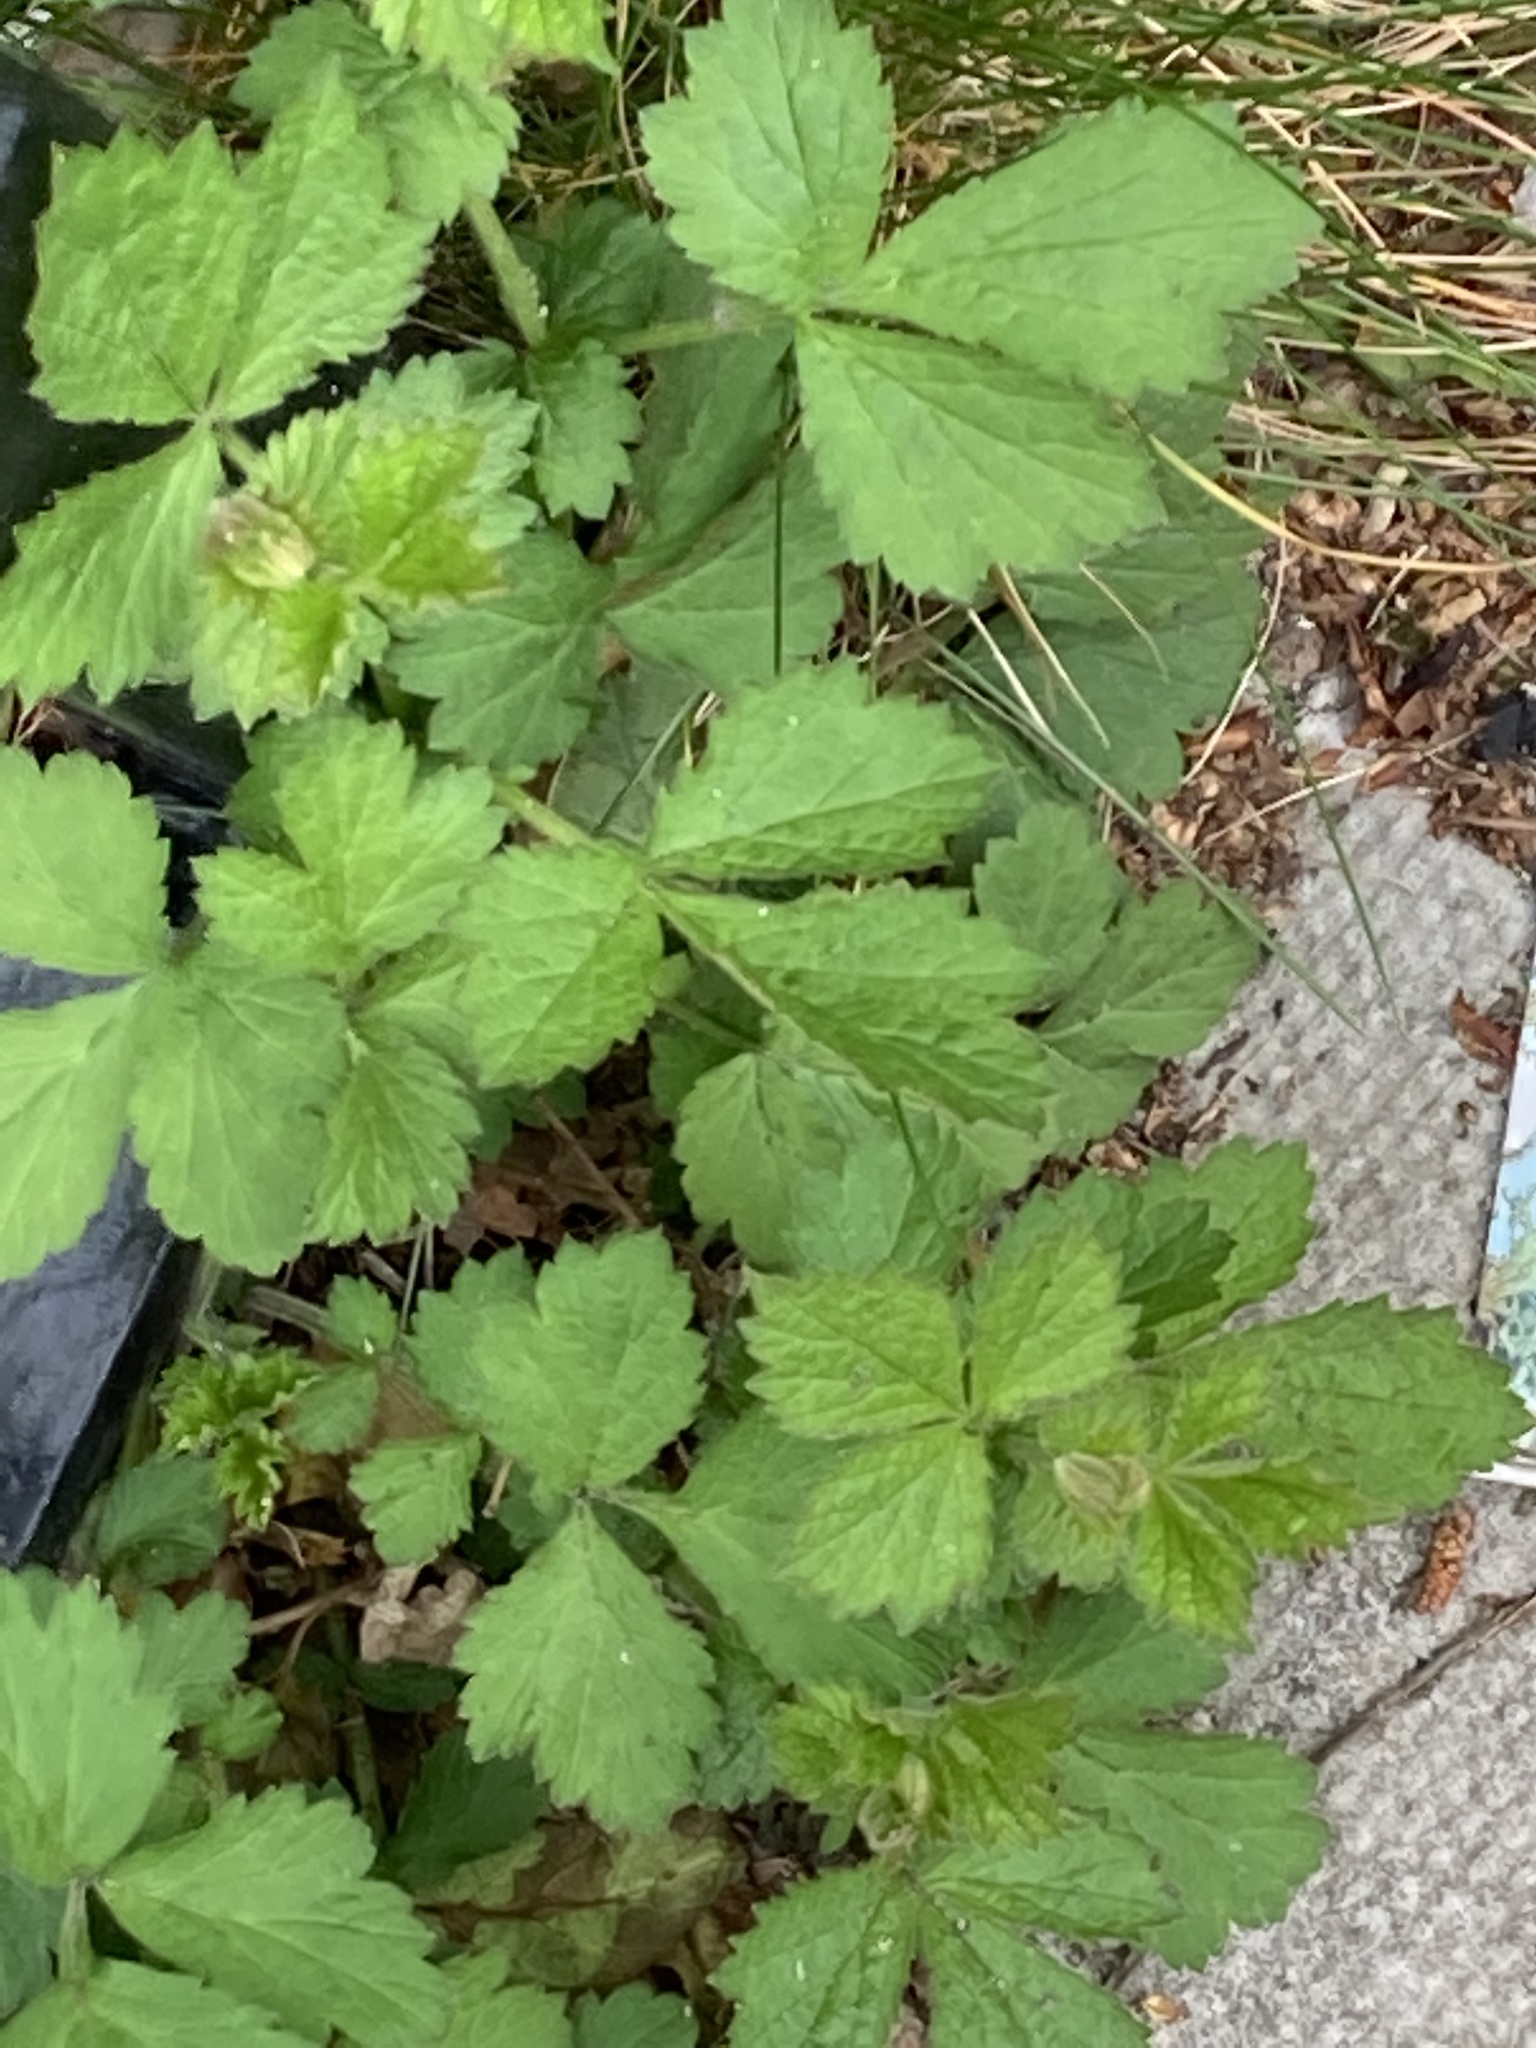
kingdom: Plantae
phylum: Tracheophyta
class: Magnoliopsida
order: Rosales
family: Rosaceae
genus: Geum
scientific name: Geum urbanum
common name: Wood avens
